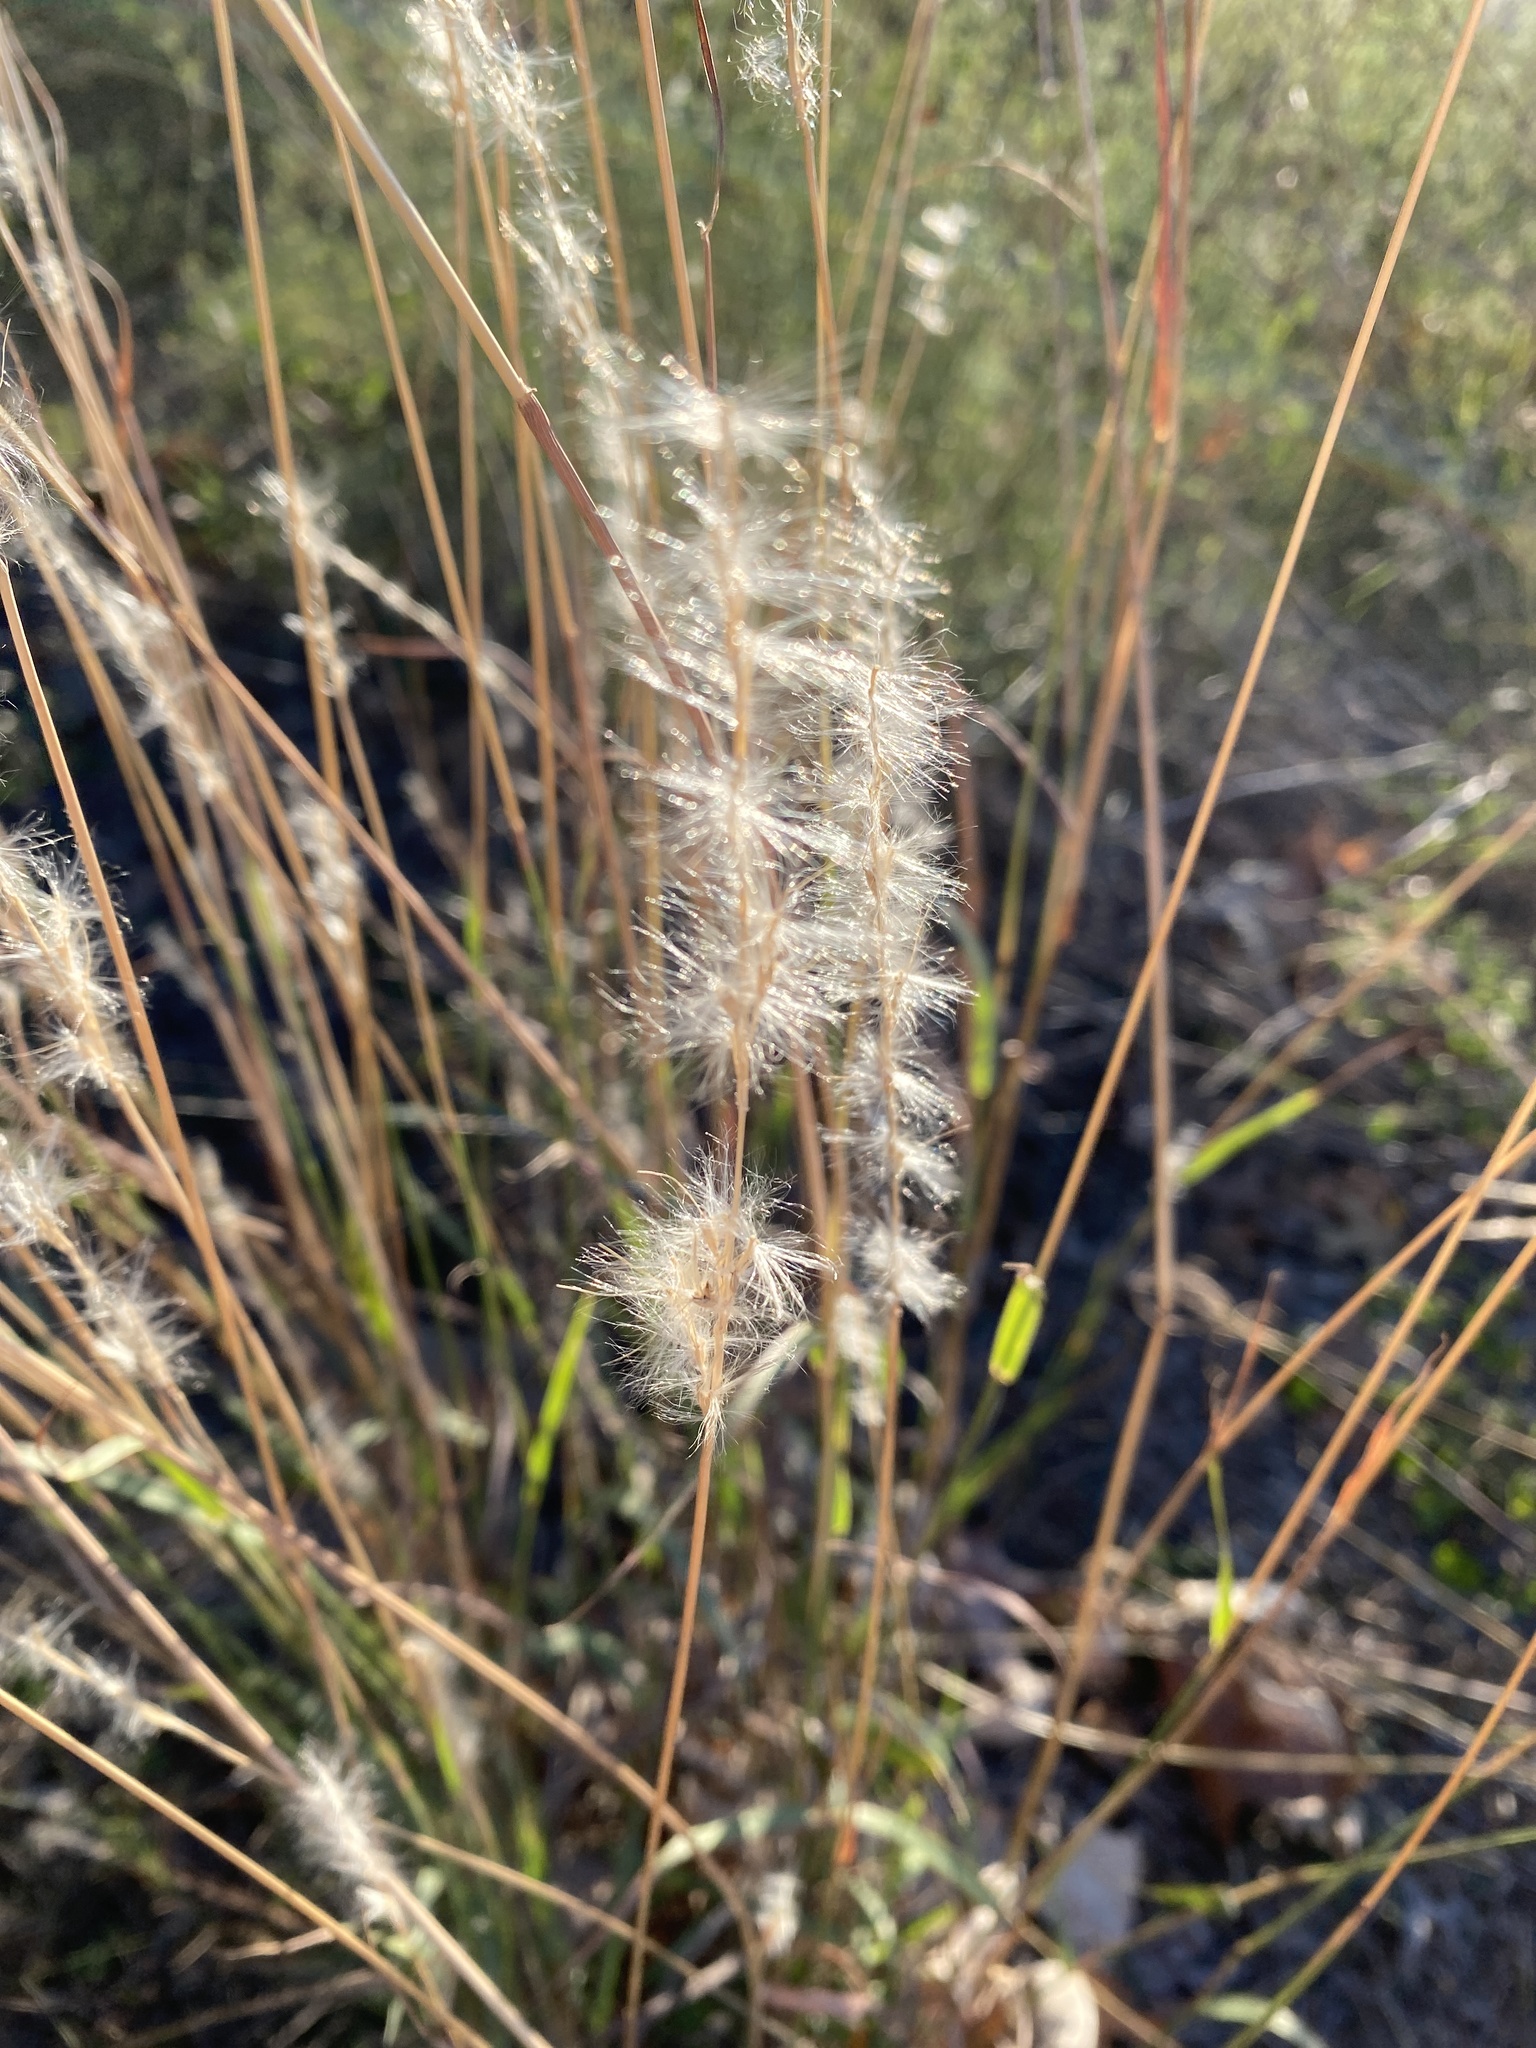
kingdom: Plantae
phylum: Tracheophyta
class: Liliopsida
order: Poales
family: Poaceae
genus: Bothriochloa
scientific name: Bothriochloa torreyana
